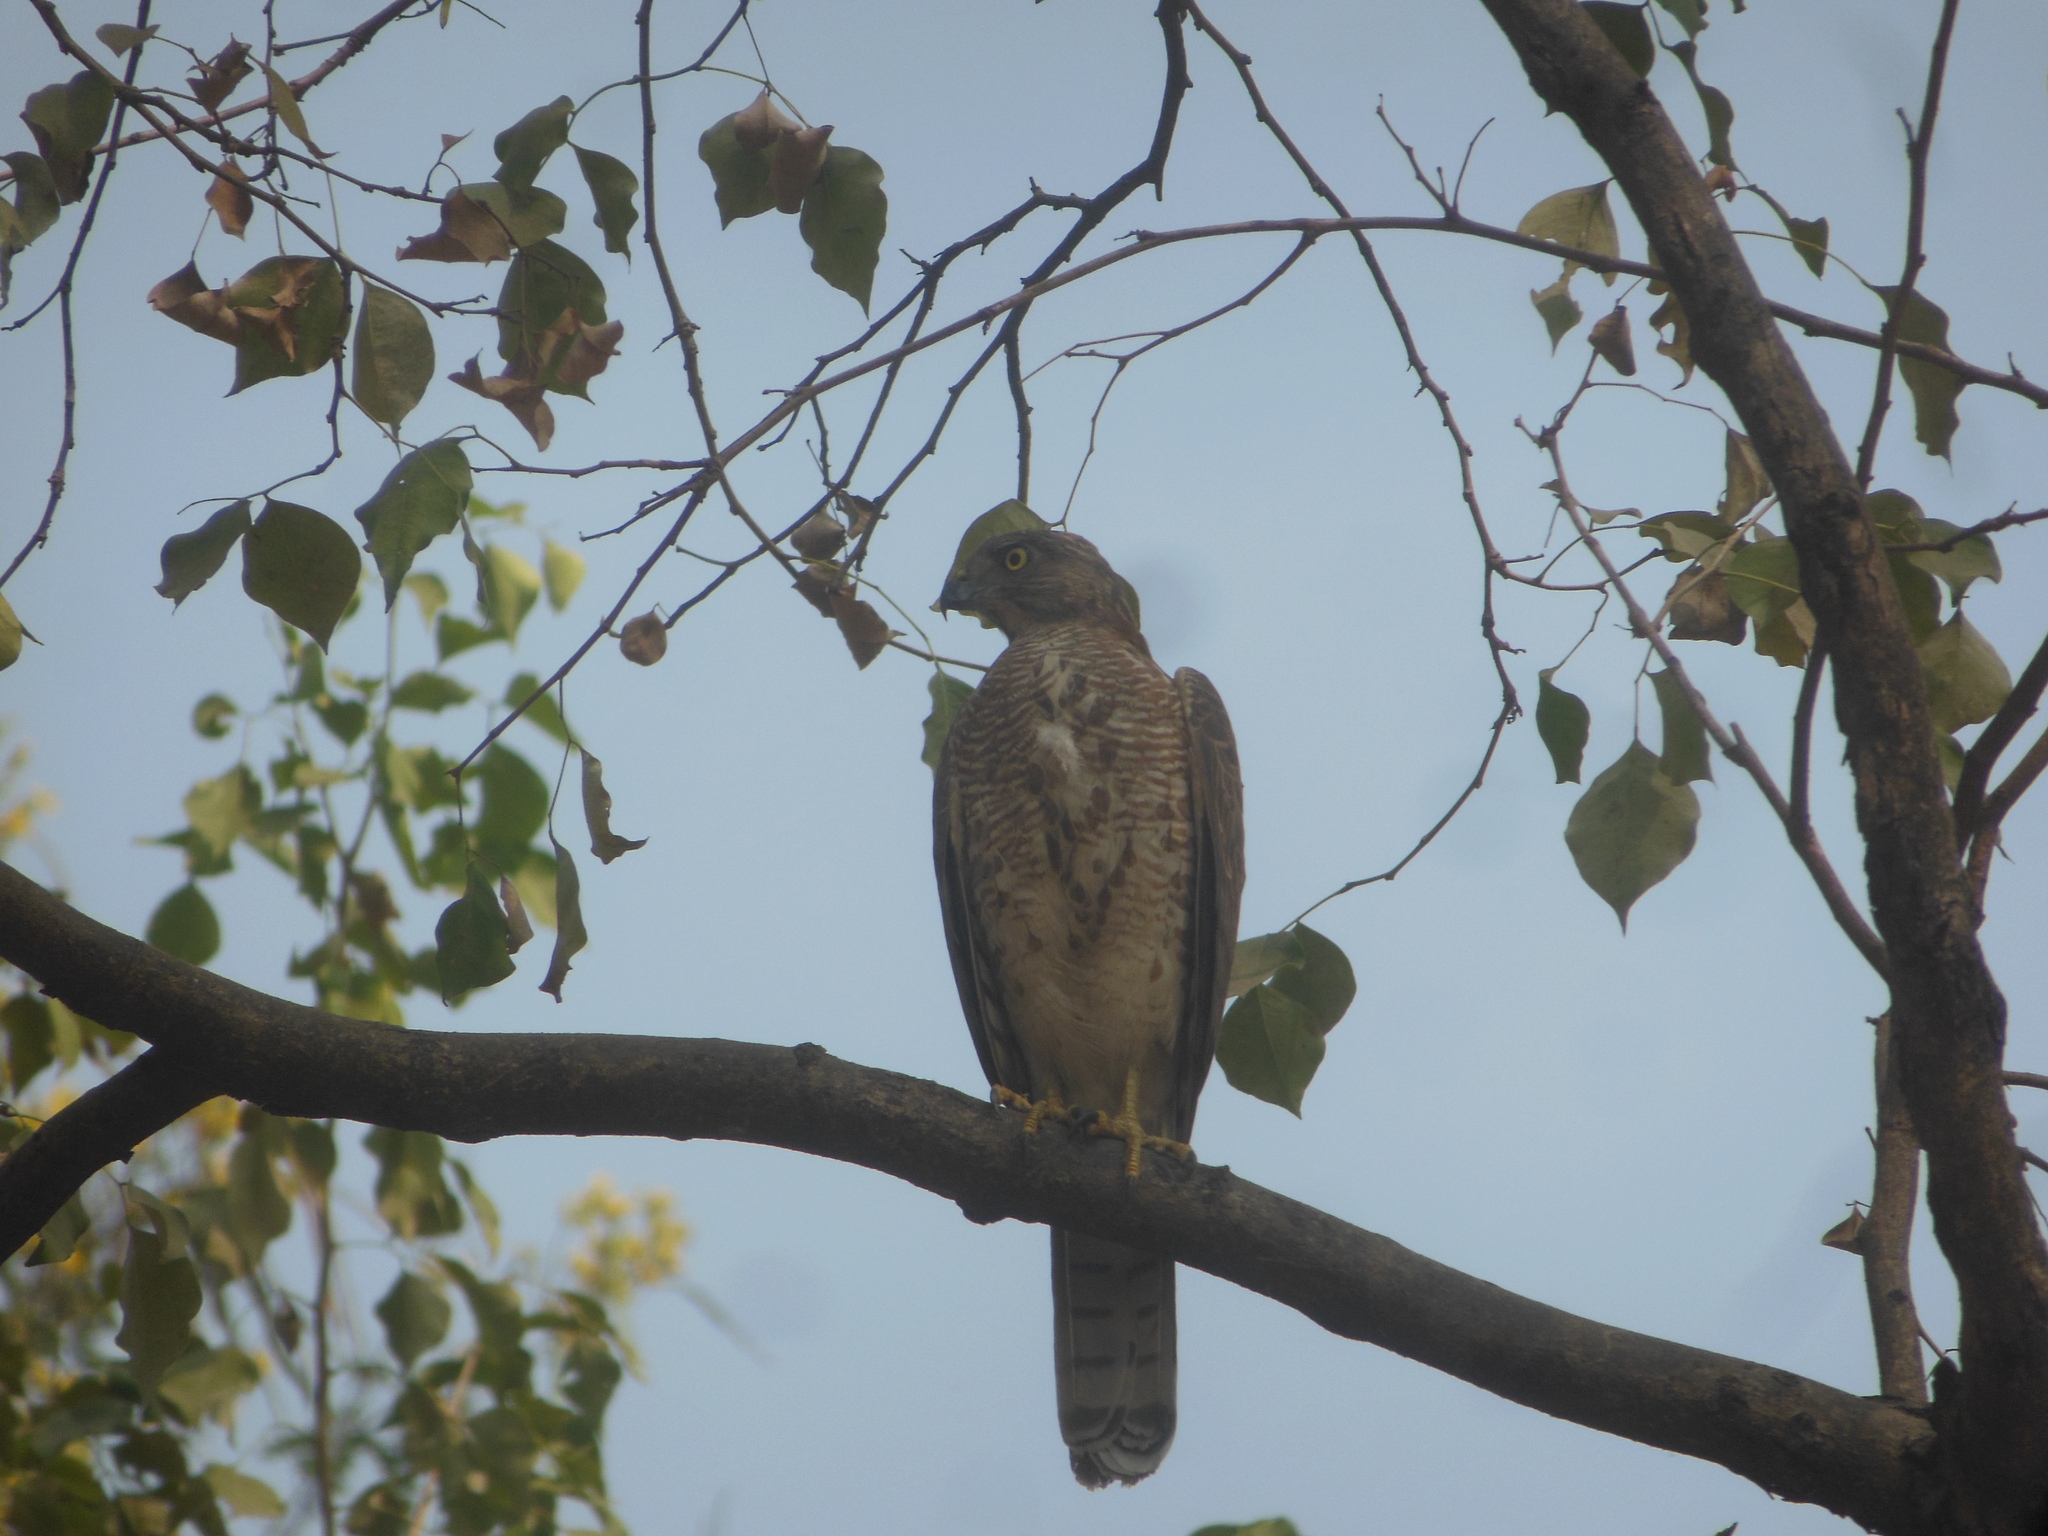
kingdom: Animalia
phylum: Chordata
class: Aves
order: Accipitriformes
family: Accipitridae
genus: Accipiter
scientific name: Accipiter badius
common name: Shikra
